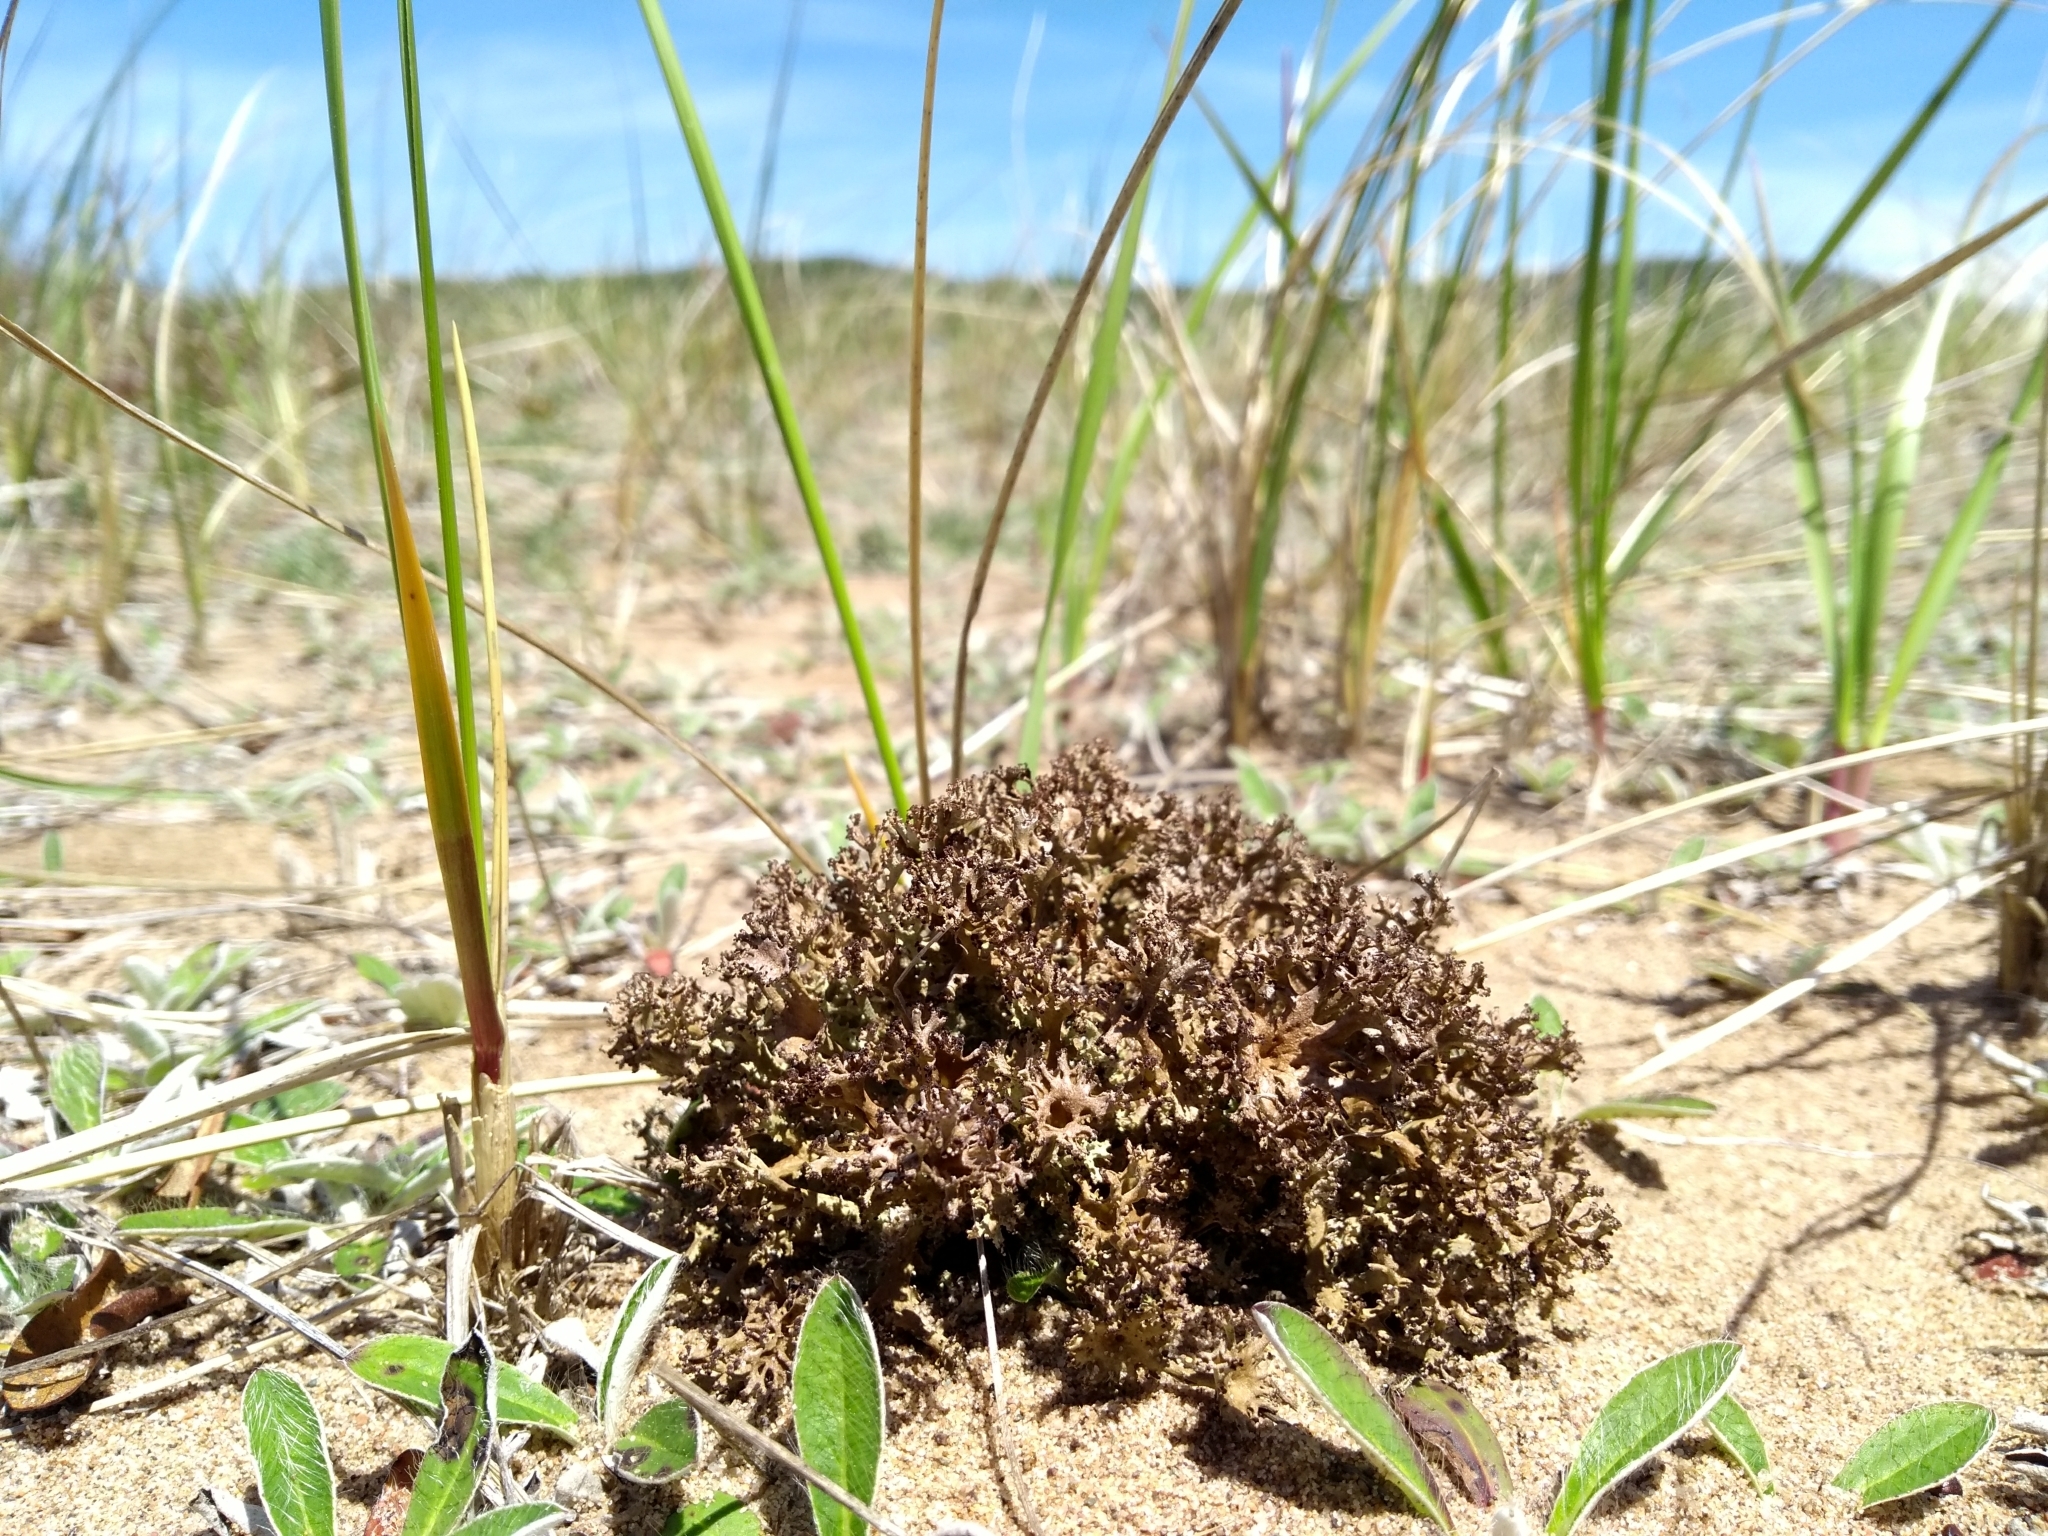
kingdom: Fungi
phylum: Ascomycota
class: Lecanoromycetes
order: Lecanorales
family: Cladoniaceae
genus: Cladonia
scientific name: Cladonia multiformis
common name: Sieve lichen
